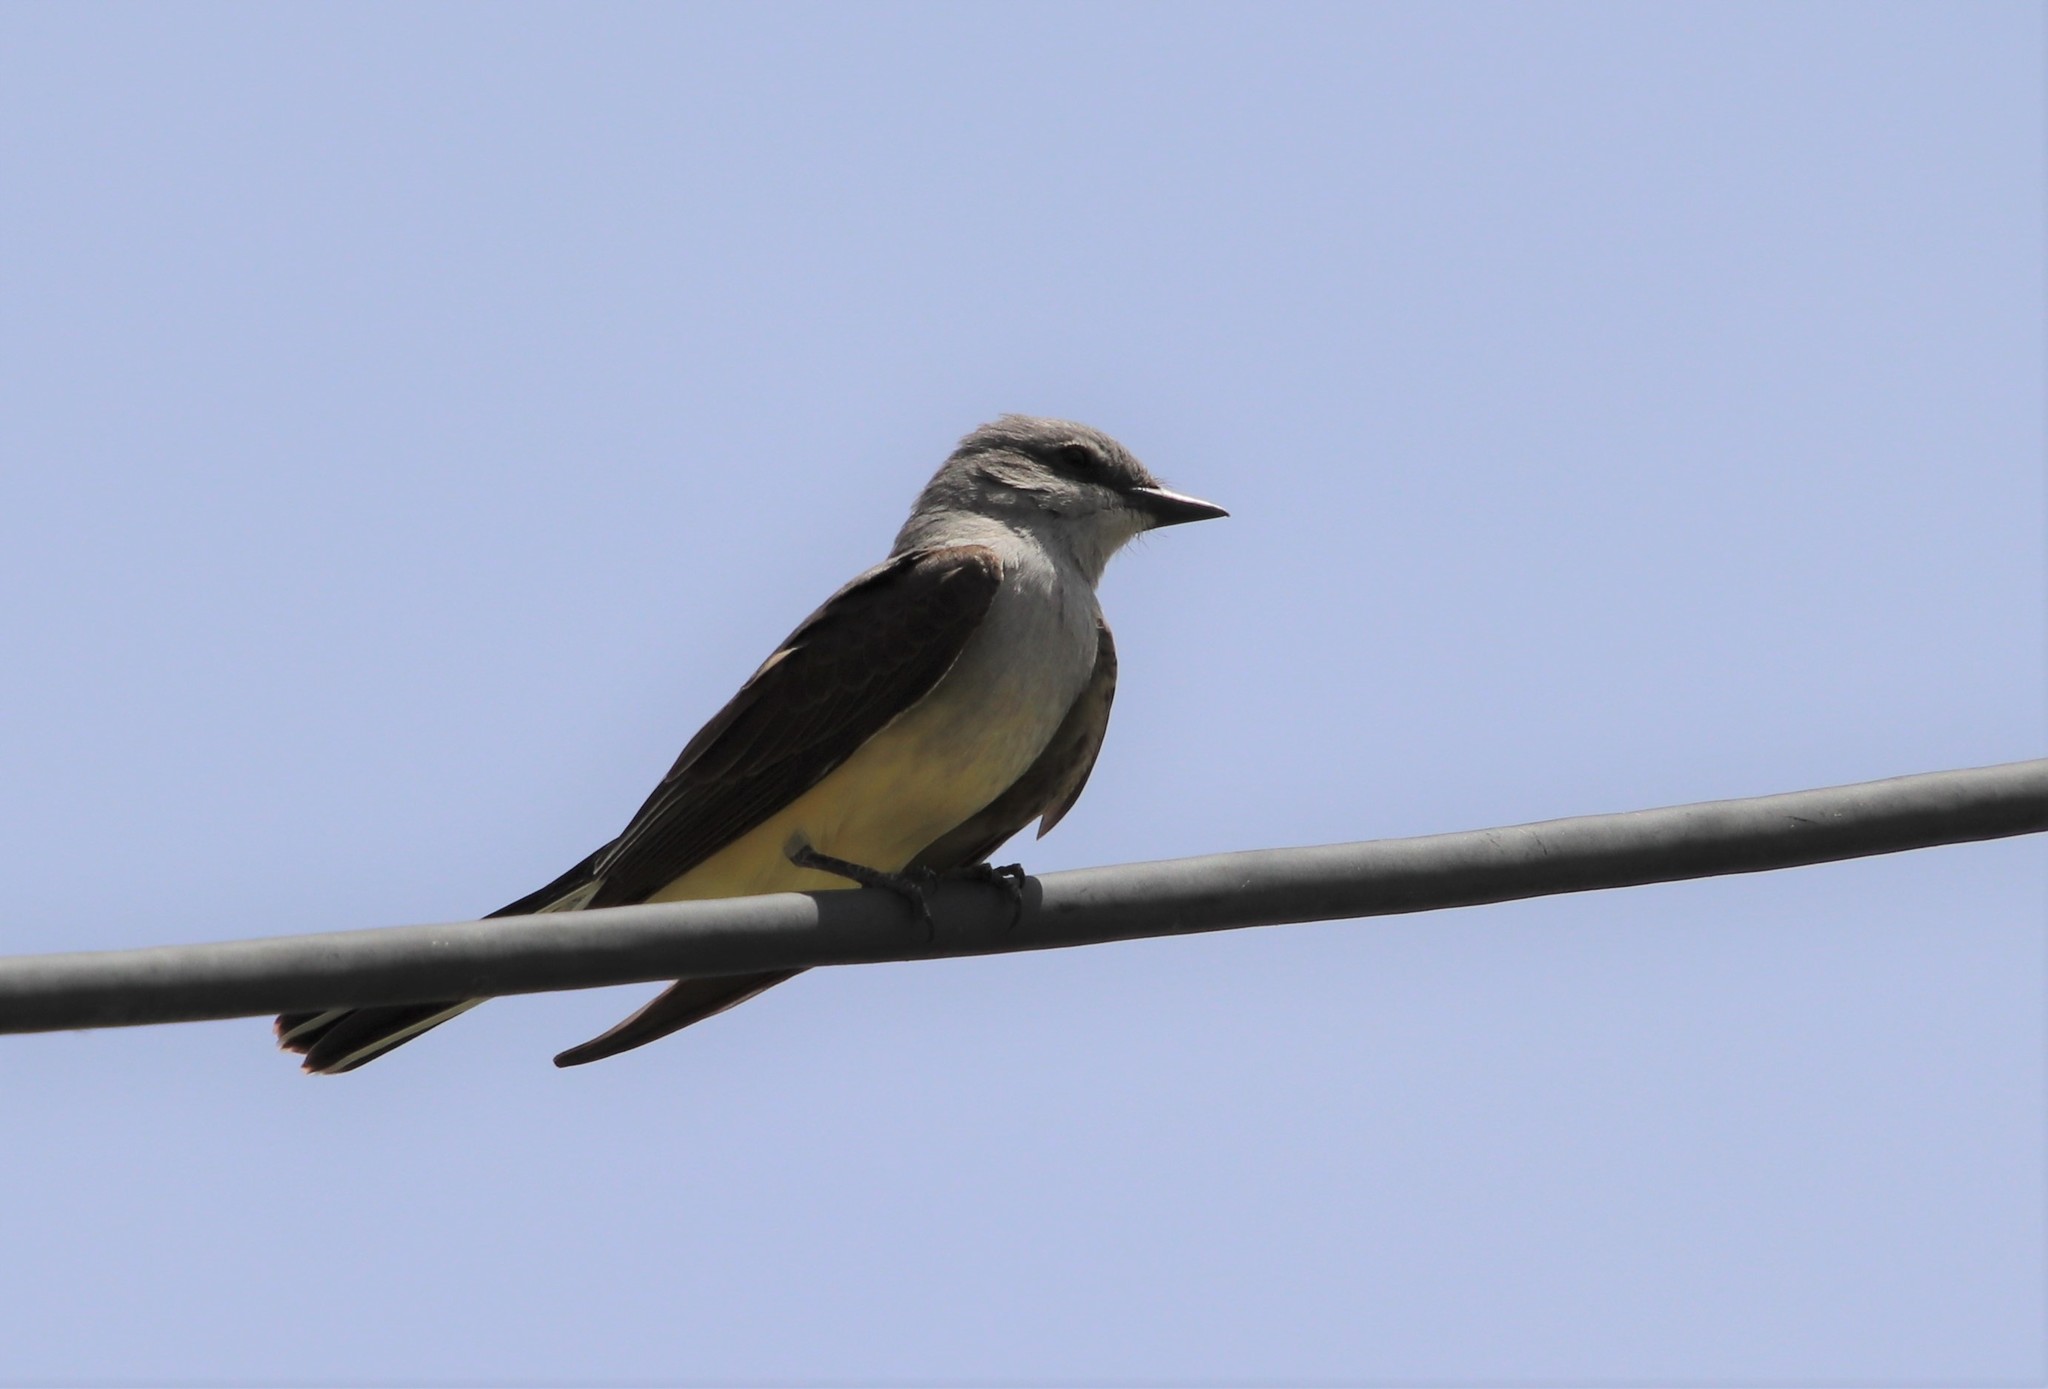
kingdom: Animalia
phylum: Chordata
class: Aves
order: Passeriformes
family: Tyrannidae
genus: Tyrannus
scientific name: Tyrannus verticalis
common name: Western kingbird
